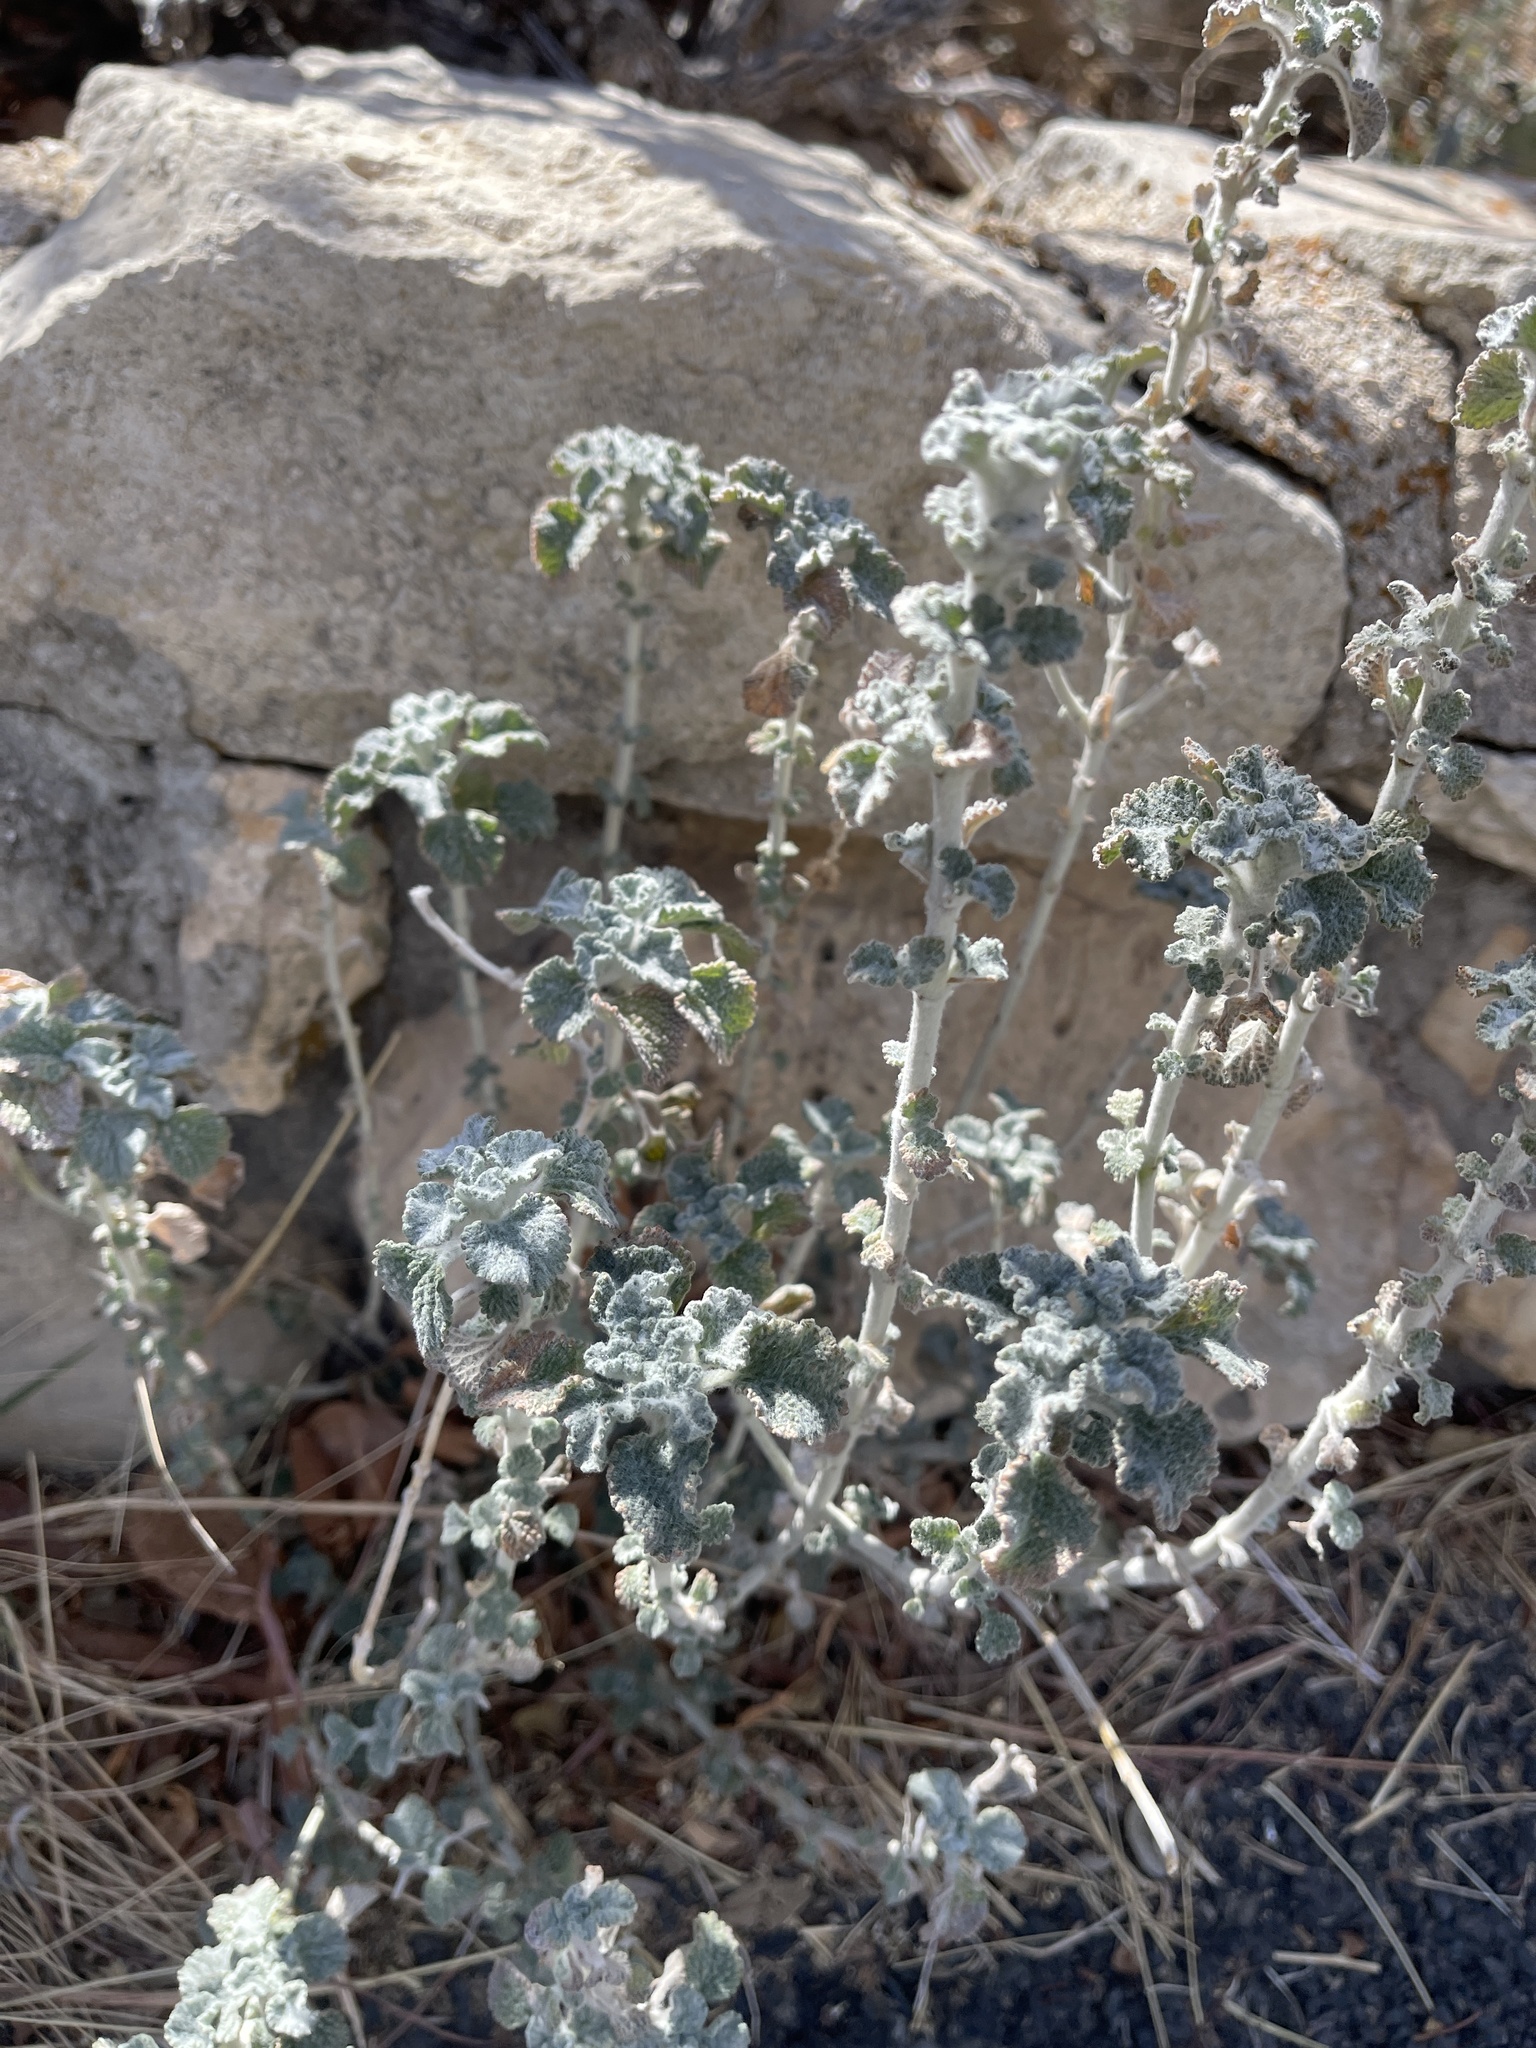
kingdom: Plantae
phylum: Tracheophyta
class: Magnoliopsida
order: Lamiales
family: Lamiaceae
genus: Marrubium
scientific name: Marrubium vulgare
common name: Horehound
